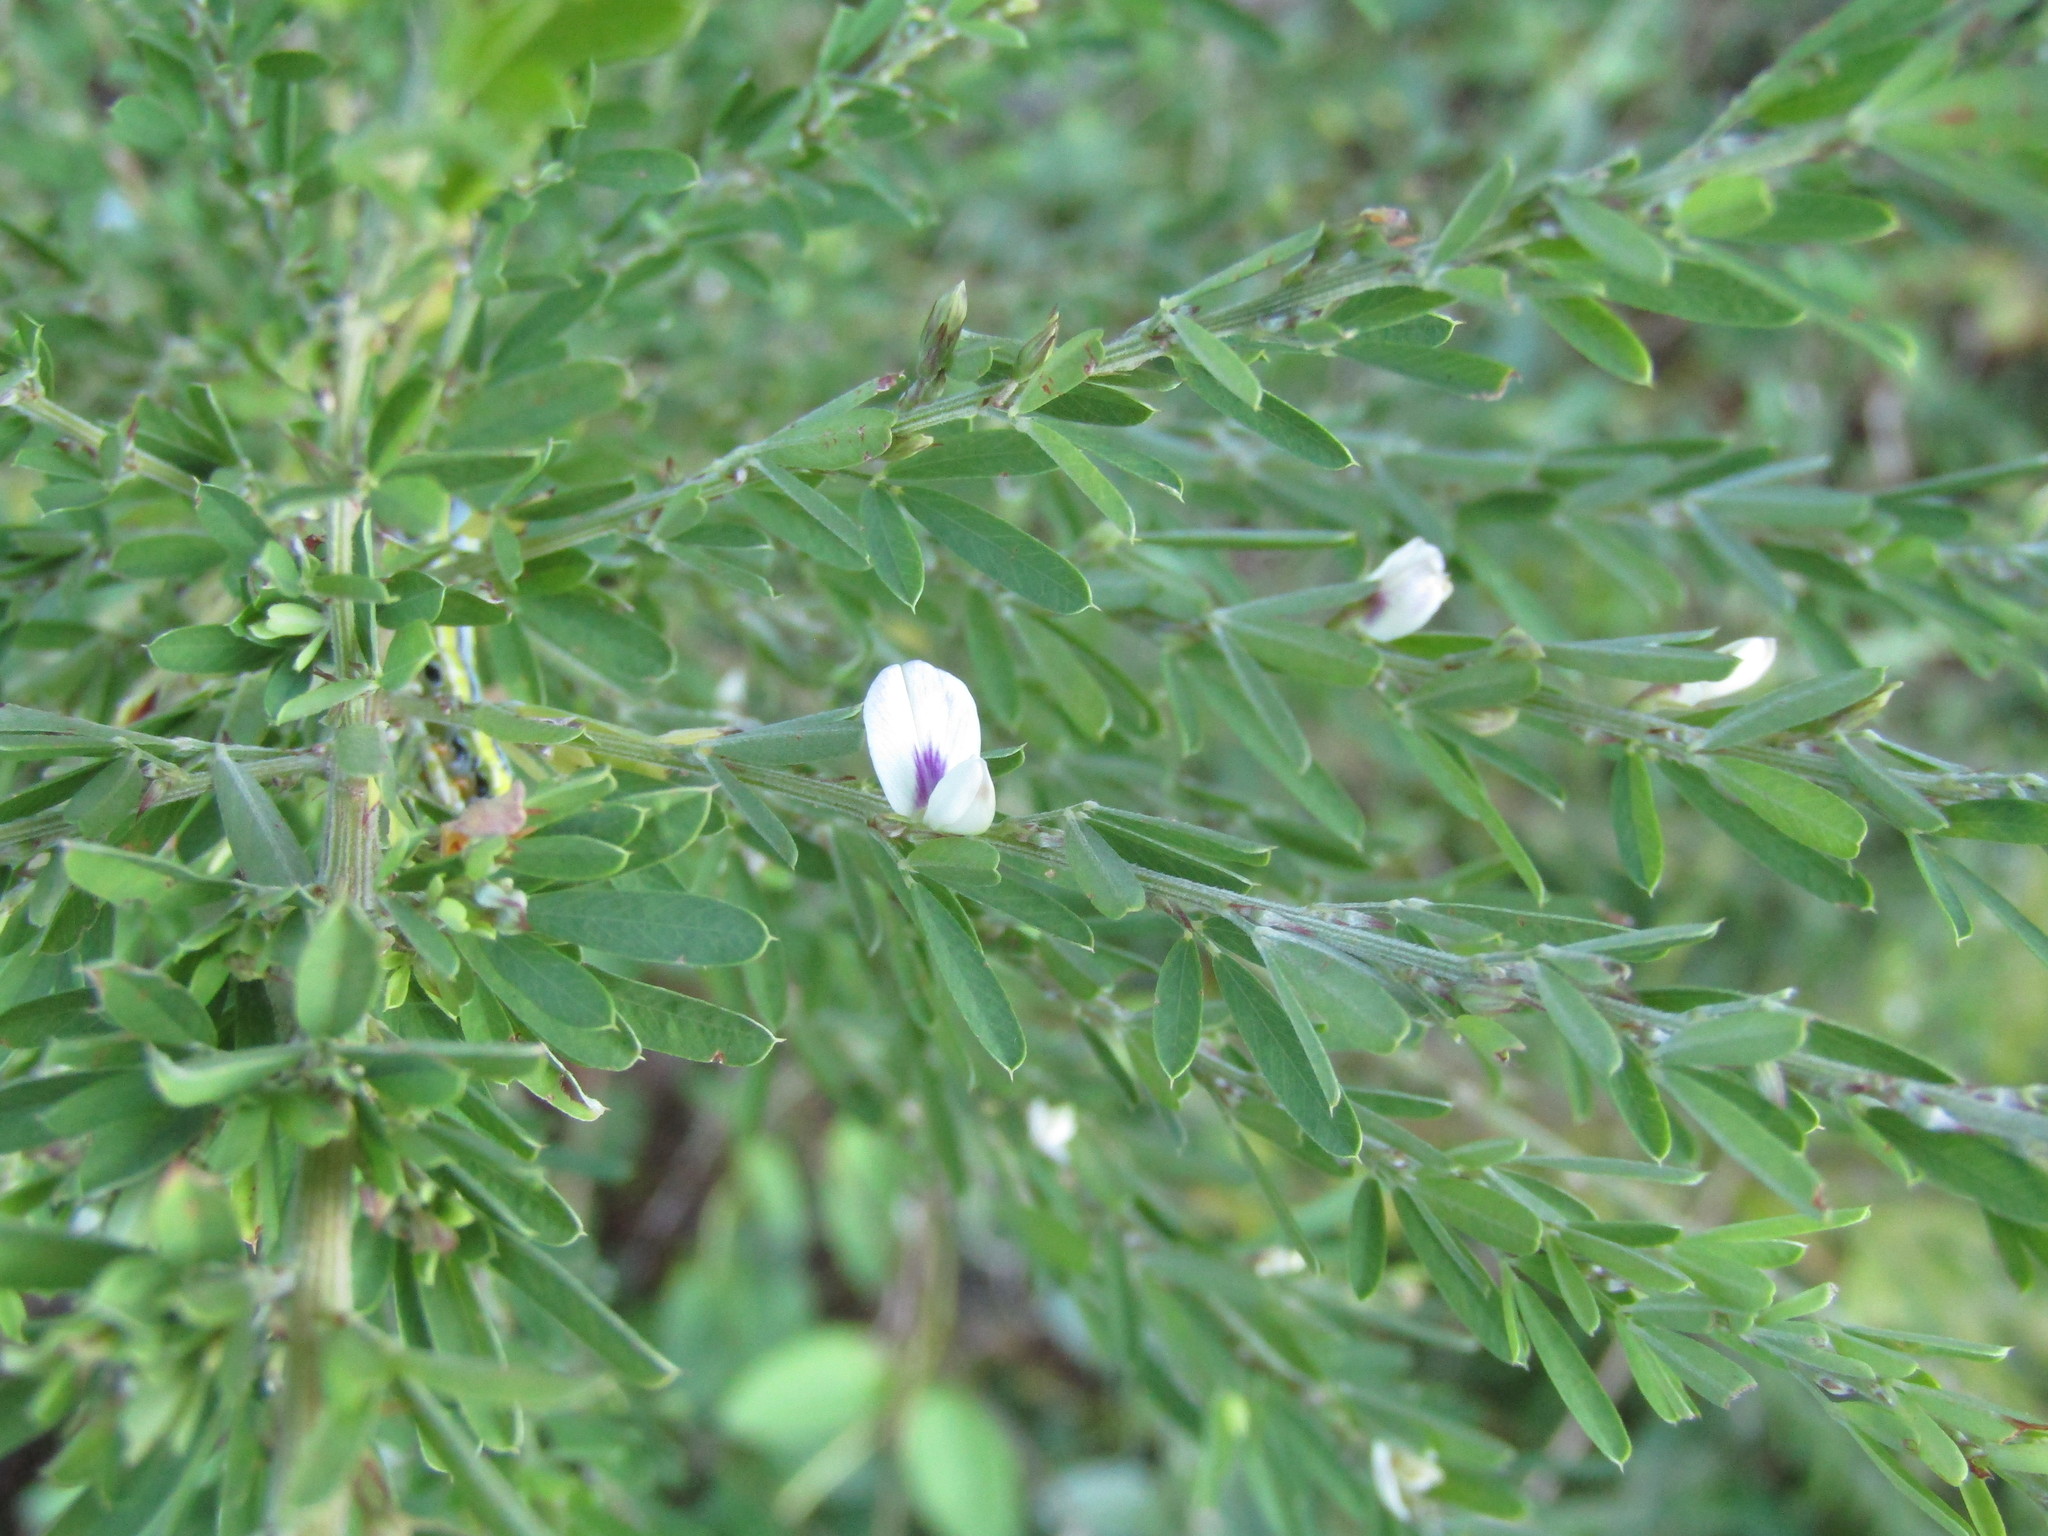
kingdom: Plantae
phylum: Tracheophyta
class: Magnoliopsida
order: Fabales
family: Fabaceae
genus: Lespedeza
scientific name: Lespedeza cuneata
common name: Chinese bush-clover
